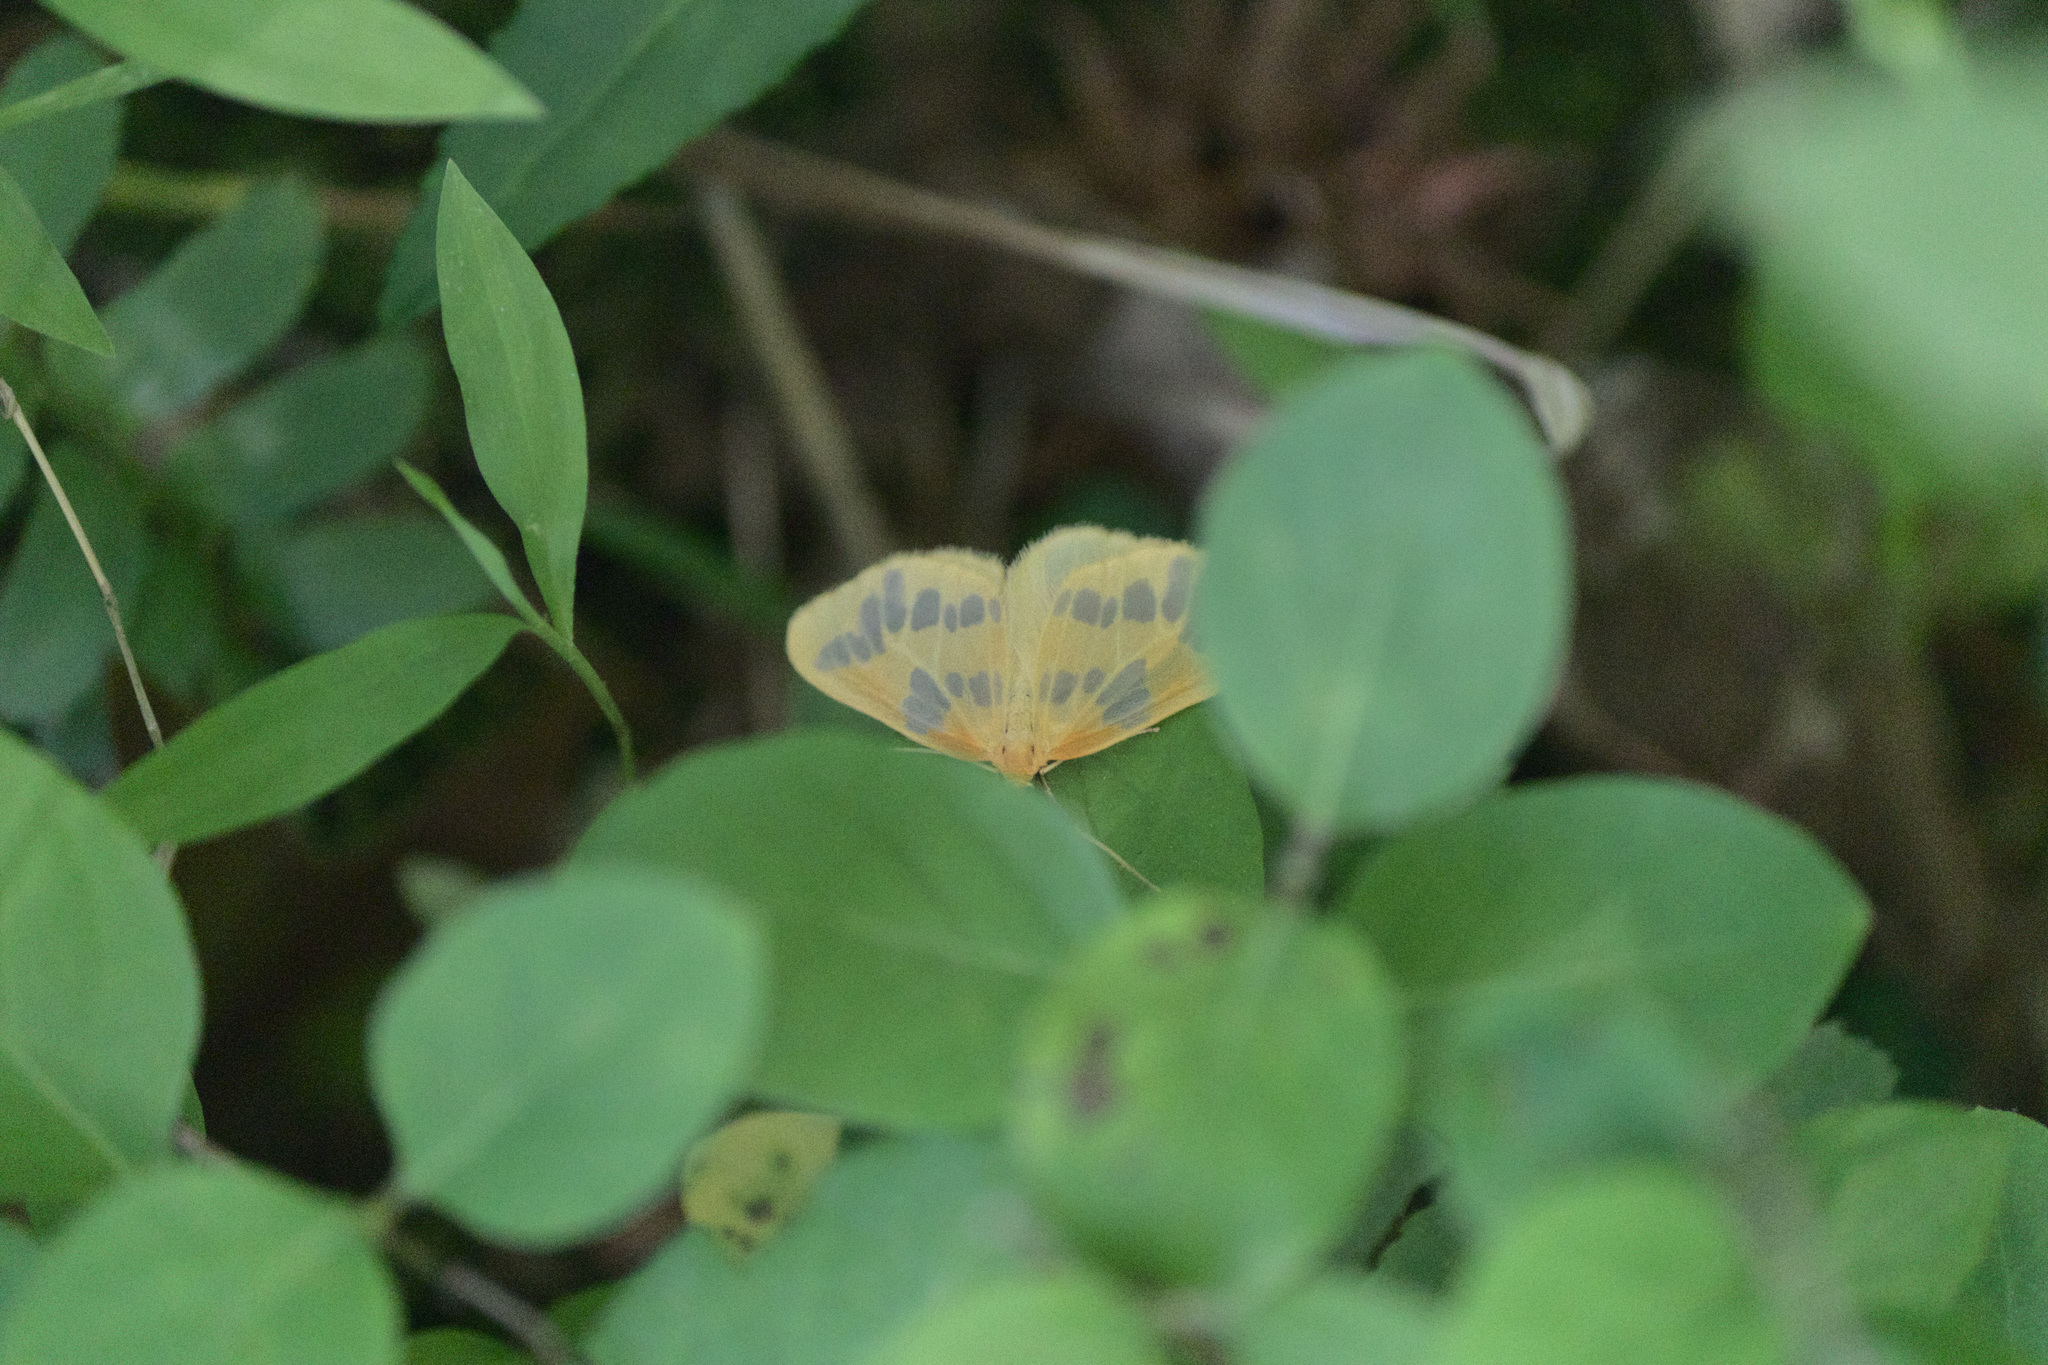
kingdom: Animalia
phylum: Arthropoda
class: Insecta
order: Lepidoptera
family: Geometridae
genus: Eubaphe
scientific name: Eubaphe mendica
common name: Beggar
